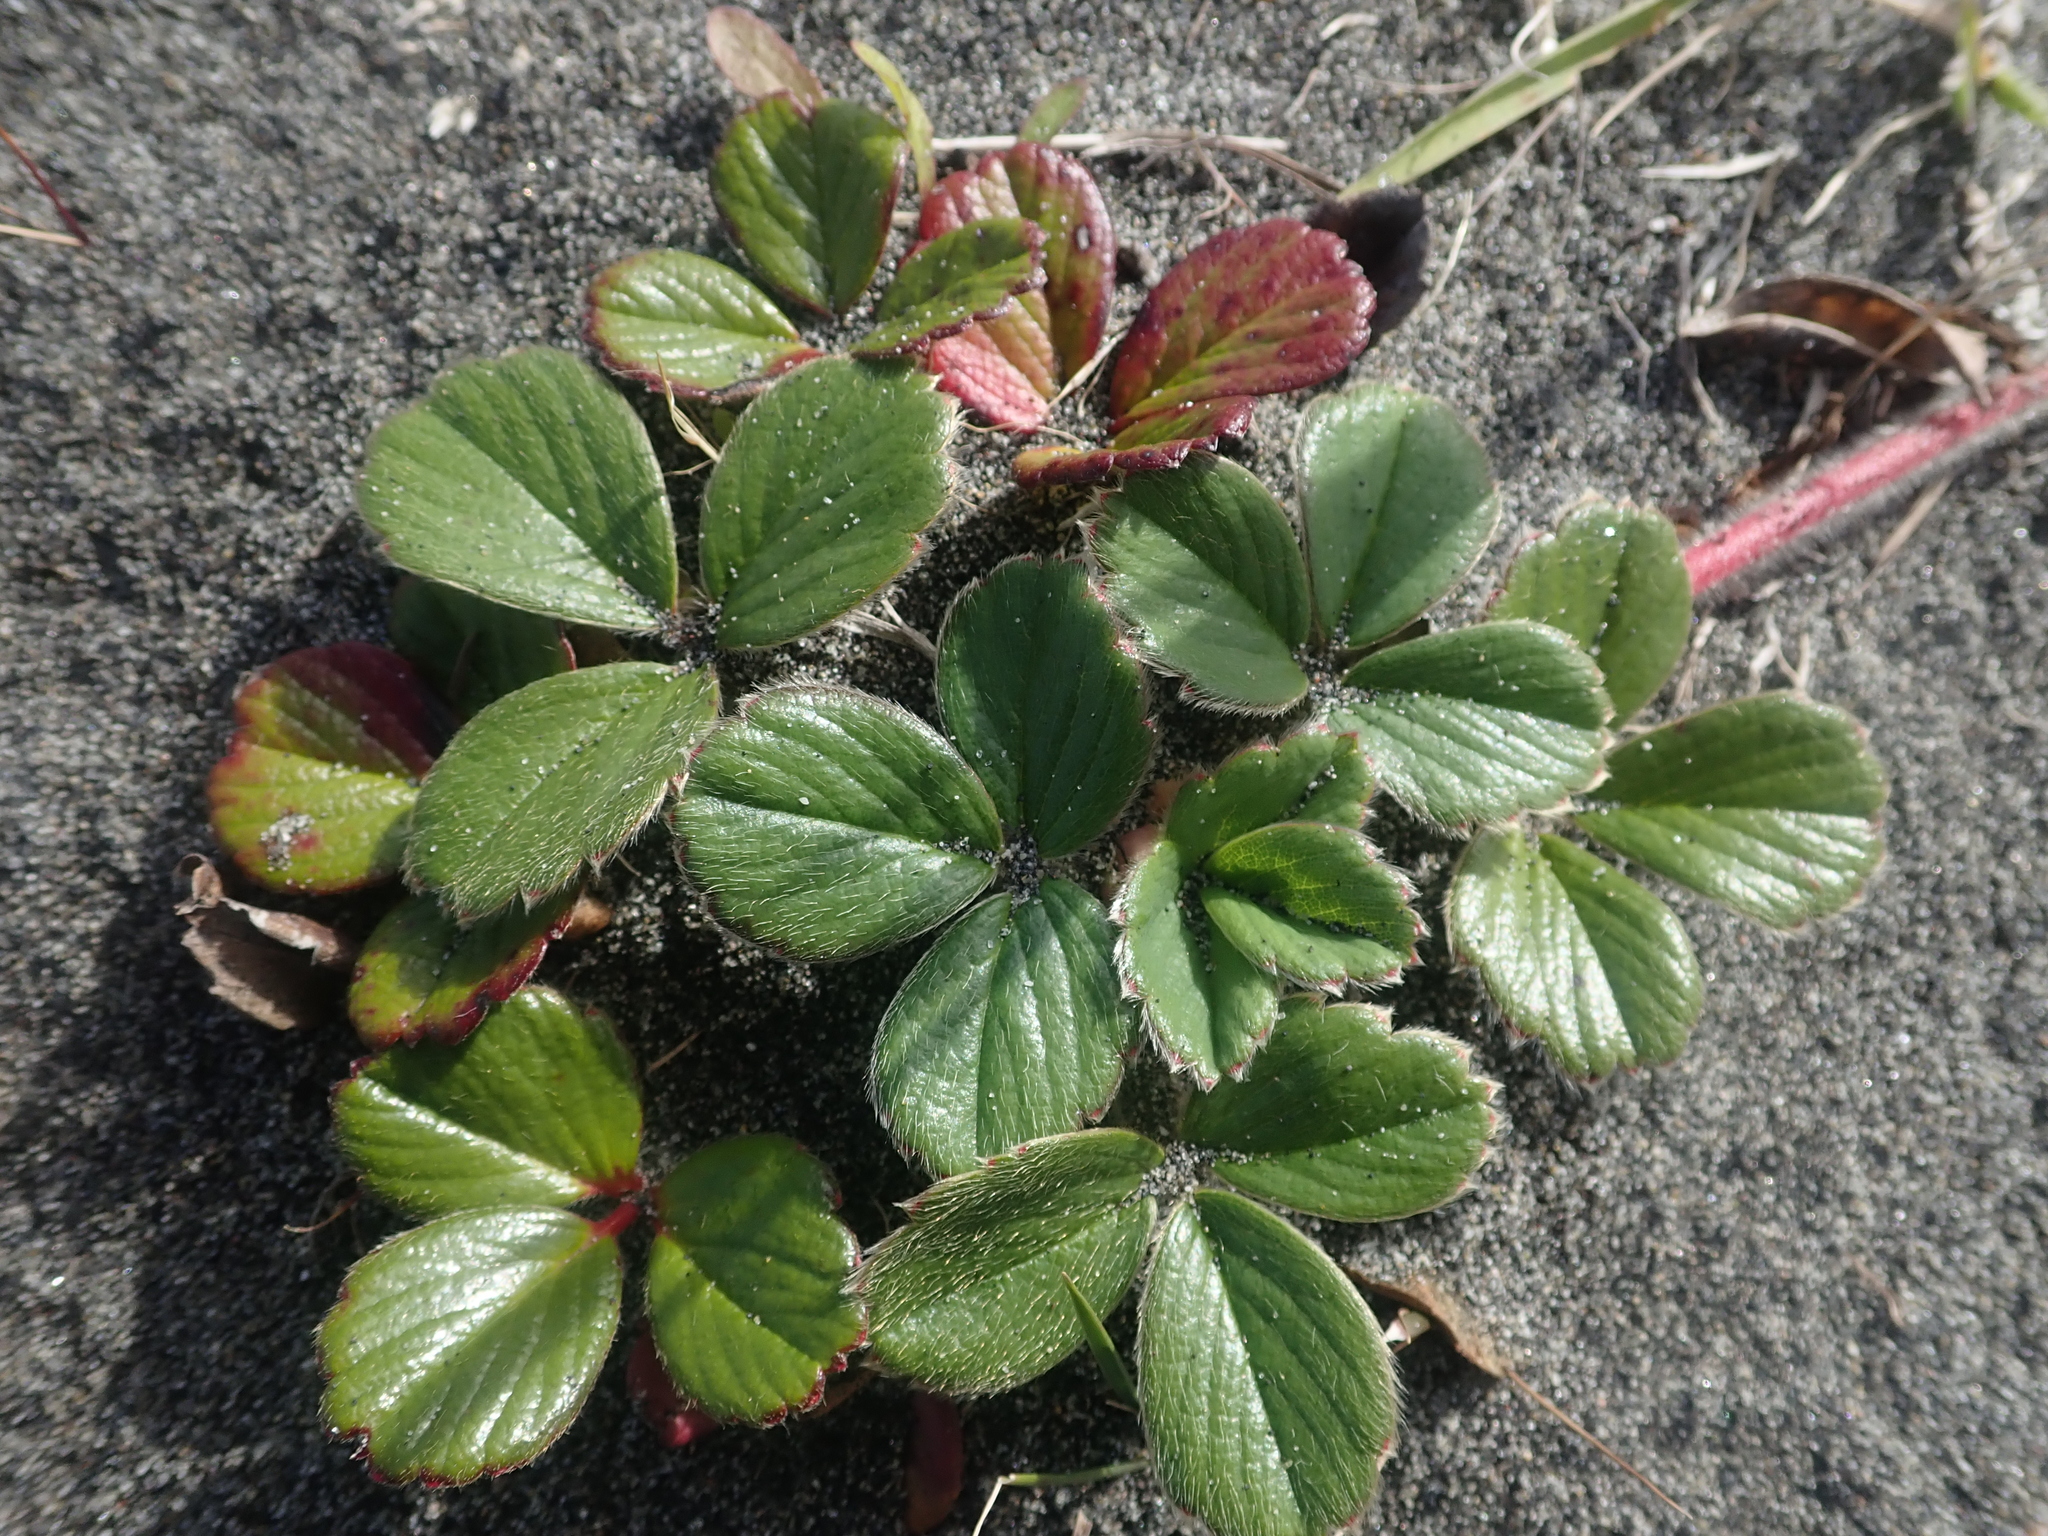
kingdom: Plantae
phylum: Tracheophyta
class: Magnoliopsida
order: Rosales
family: Rosaceae
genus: Fragaria
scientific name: Fragaria chiloensis
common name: Beach strawberry
